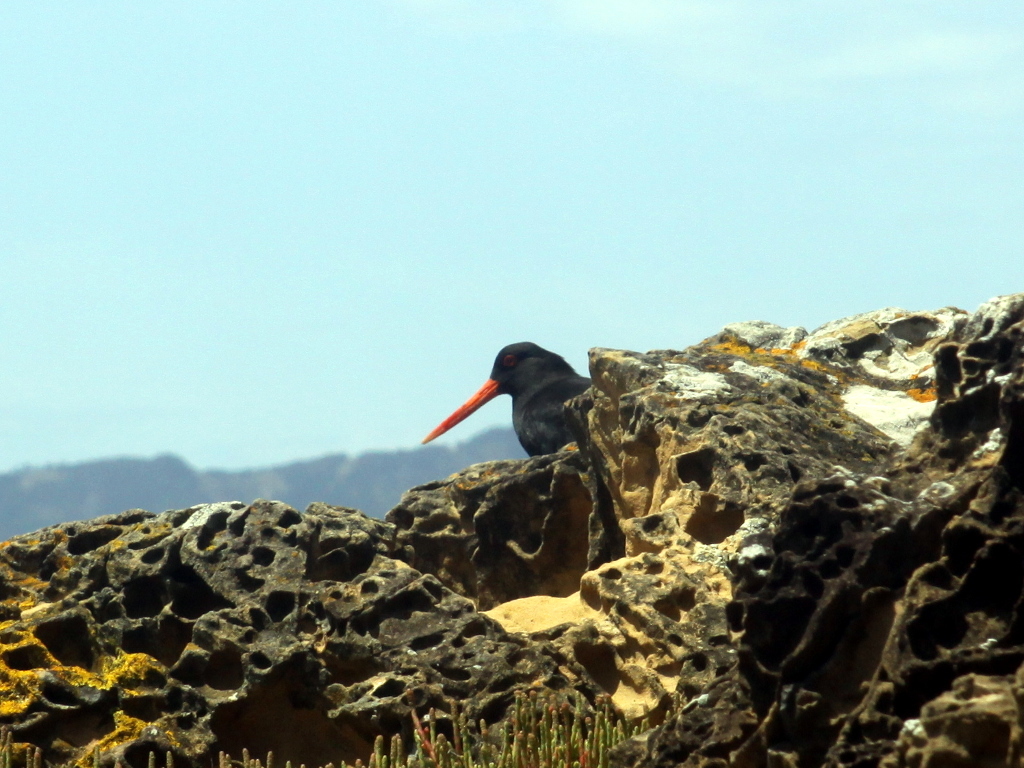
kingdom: Animalia
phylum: Chordata
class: Aves
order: Charadriiformes
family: Haematopodidae
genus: Haematopus
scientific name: Haematopus unicolor
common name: Variable oystercatcher
